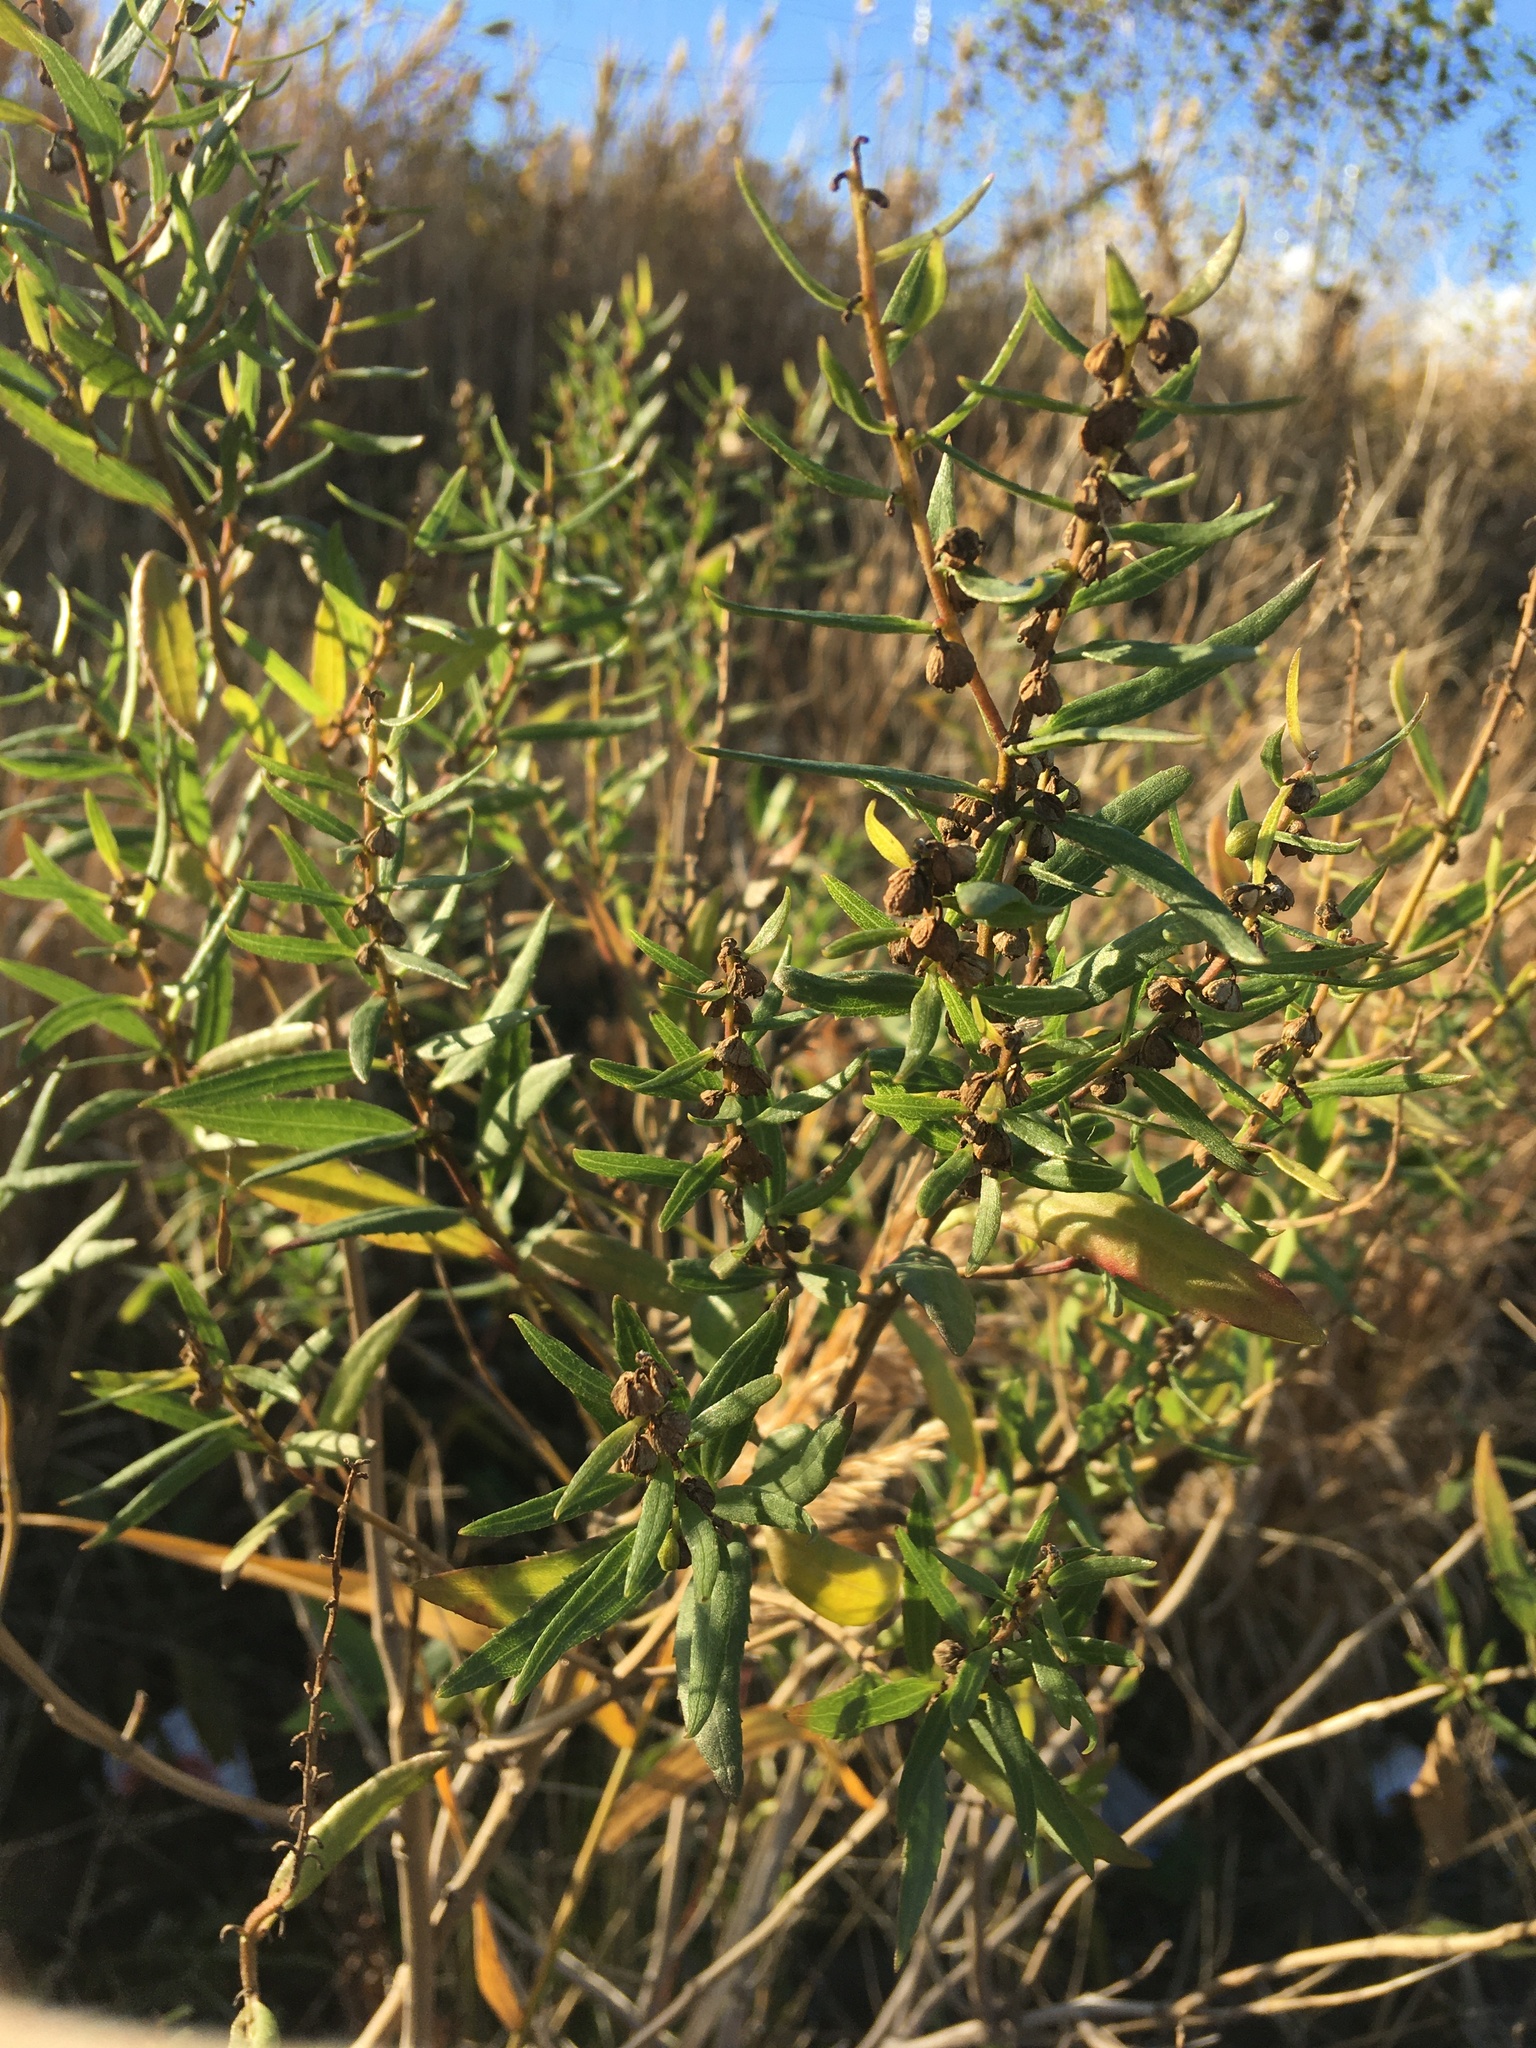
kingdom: Plantae
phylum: Tracheophyta
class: Magnoliopsida
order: Asterales
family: Asteraceae
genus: Iva
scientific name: Iva frutescens
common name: Big-leaved marsh-elder
